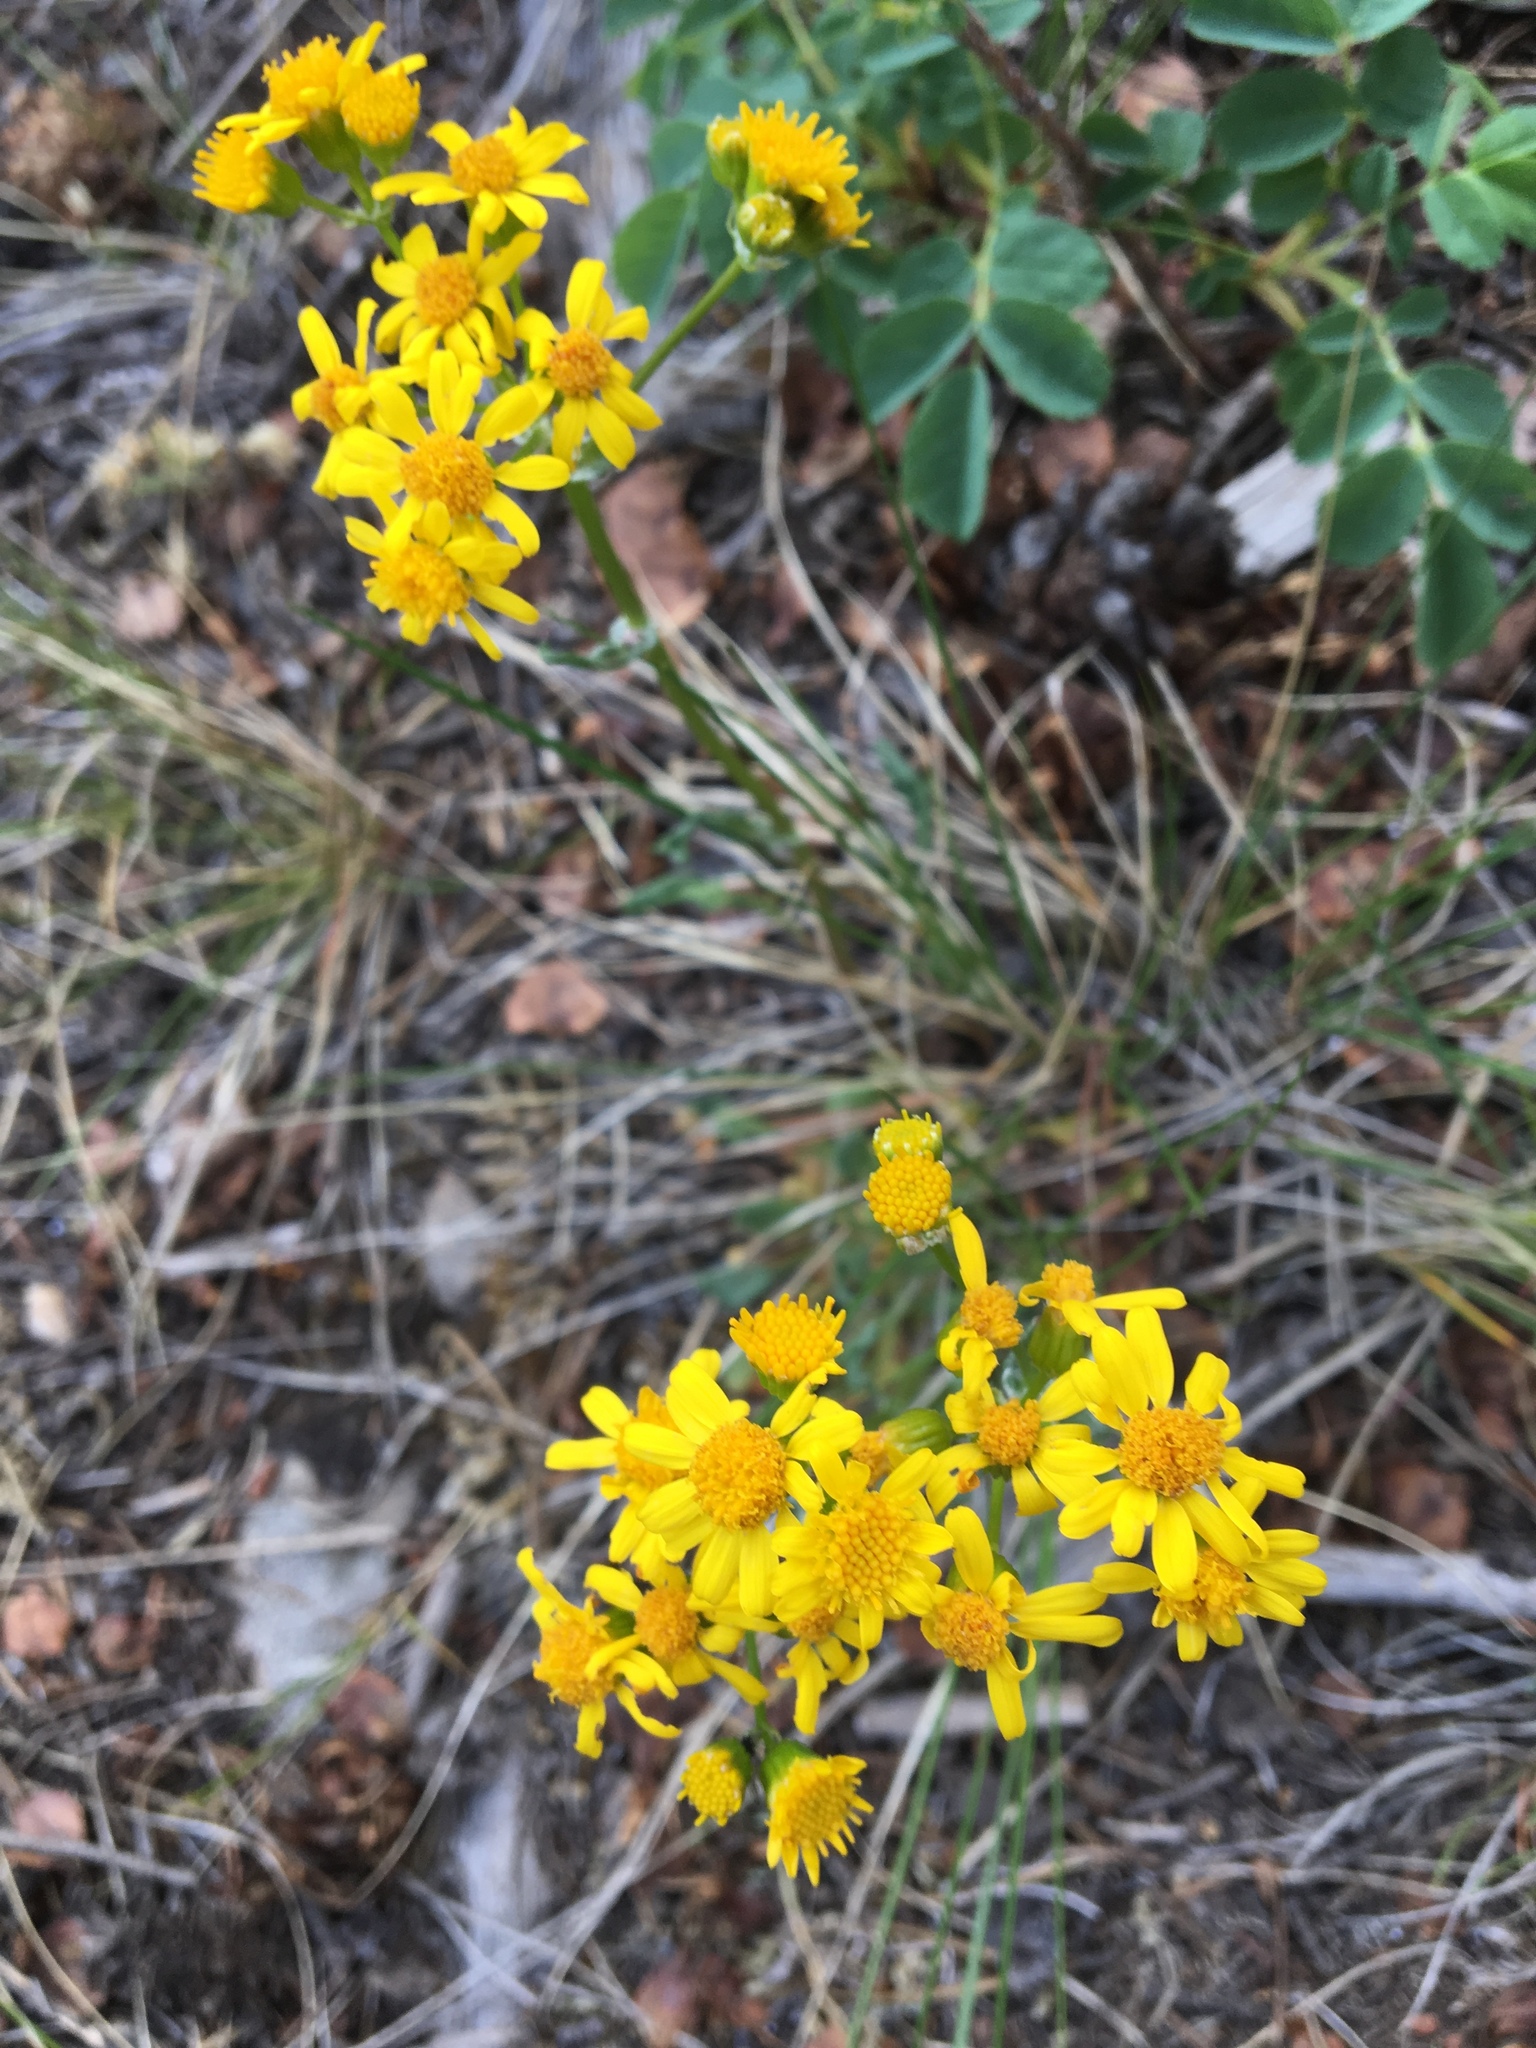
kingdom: Plantae
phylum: Tracheophyta
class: Magnoliopsida
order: Asterales
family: Asteraceae
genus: Packera
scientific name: Packera streptanthifolia
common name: Rocky mountain butterweed
